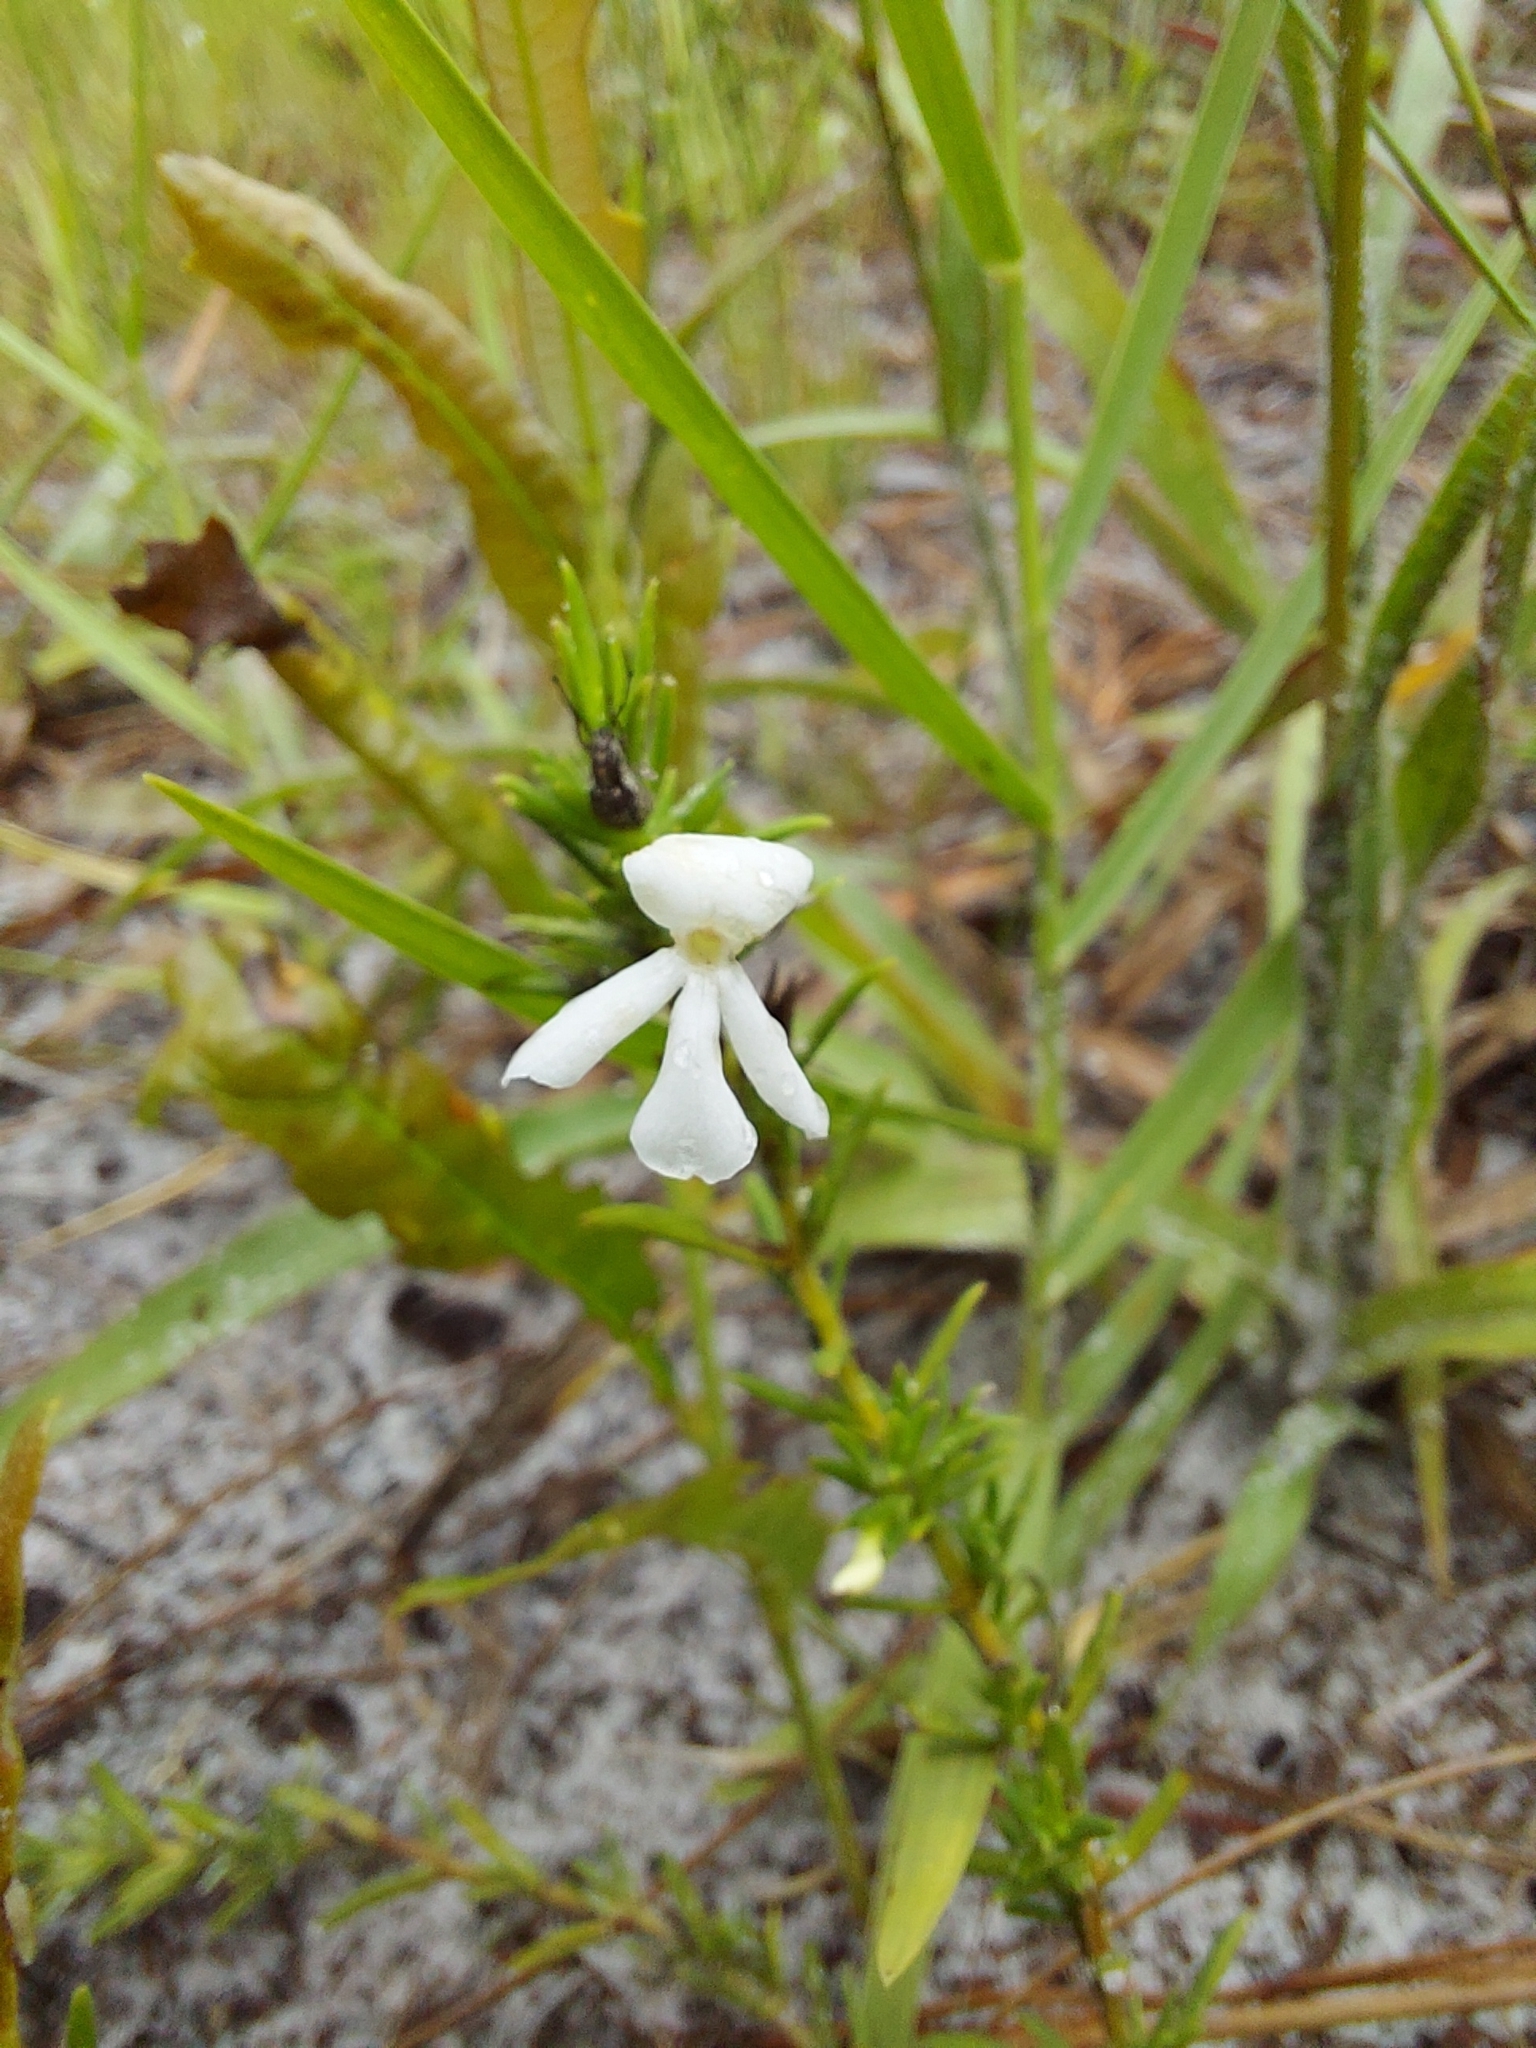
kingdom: Plantae
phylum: Tracheophyta
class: Magnoliopsida
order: Lamiales
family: Plantaginaceae
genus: Gratiola
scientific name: Gratiola hispida
